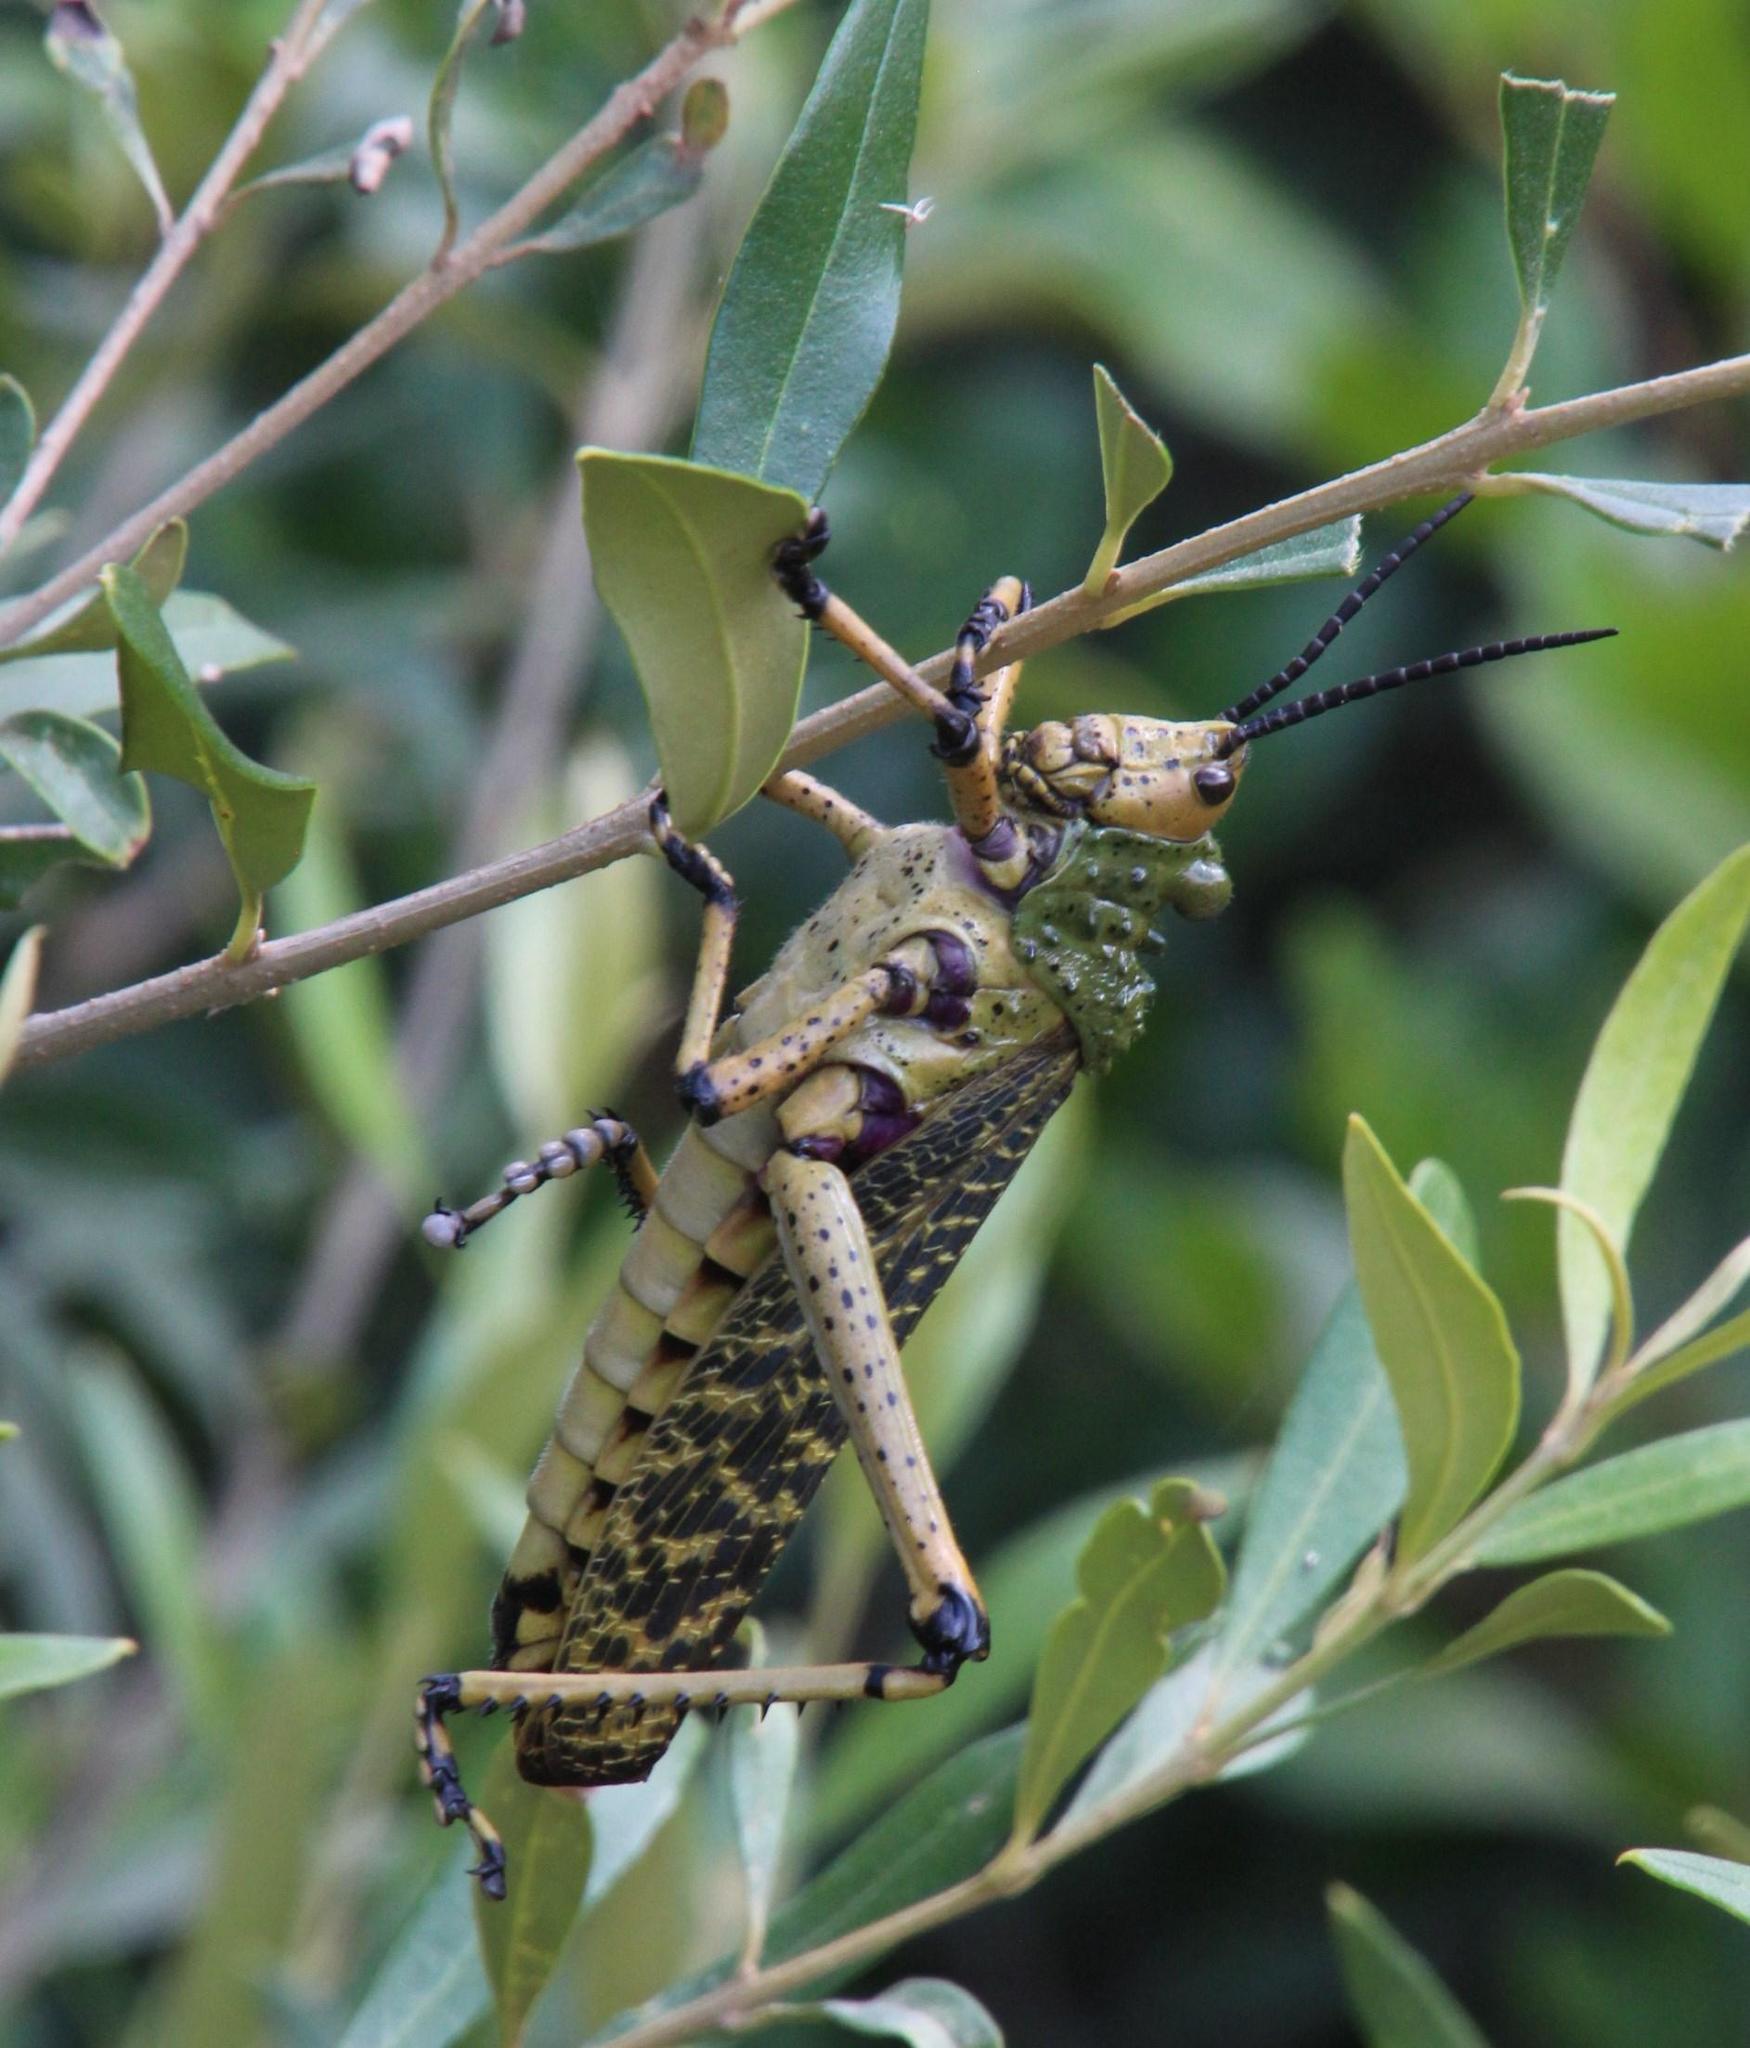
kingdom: Animalia
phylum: Arthropoda
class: Insecta
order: Orthoptera
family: Pyrgomorphidae
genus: Phymateus
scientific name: Phymateus leprosus
